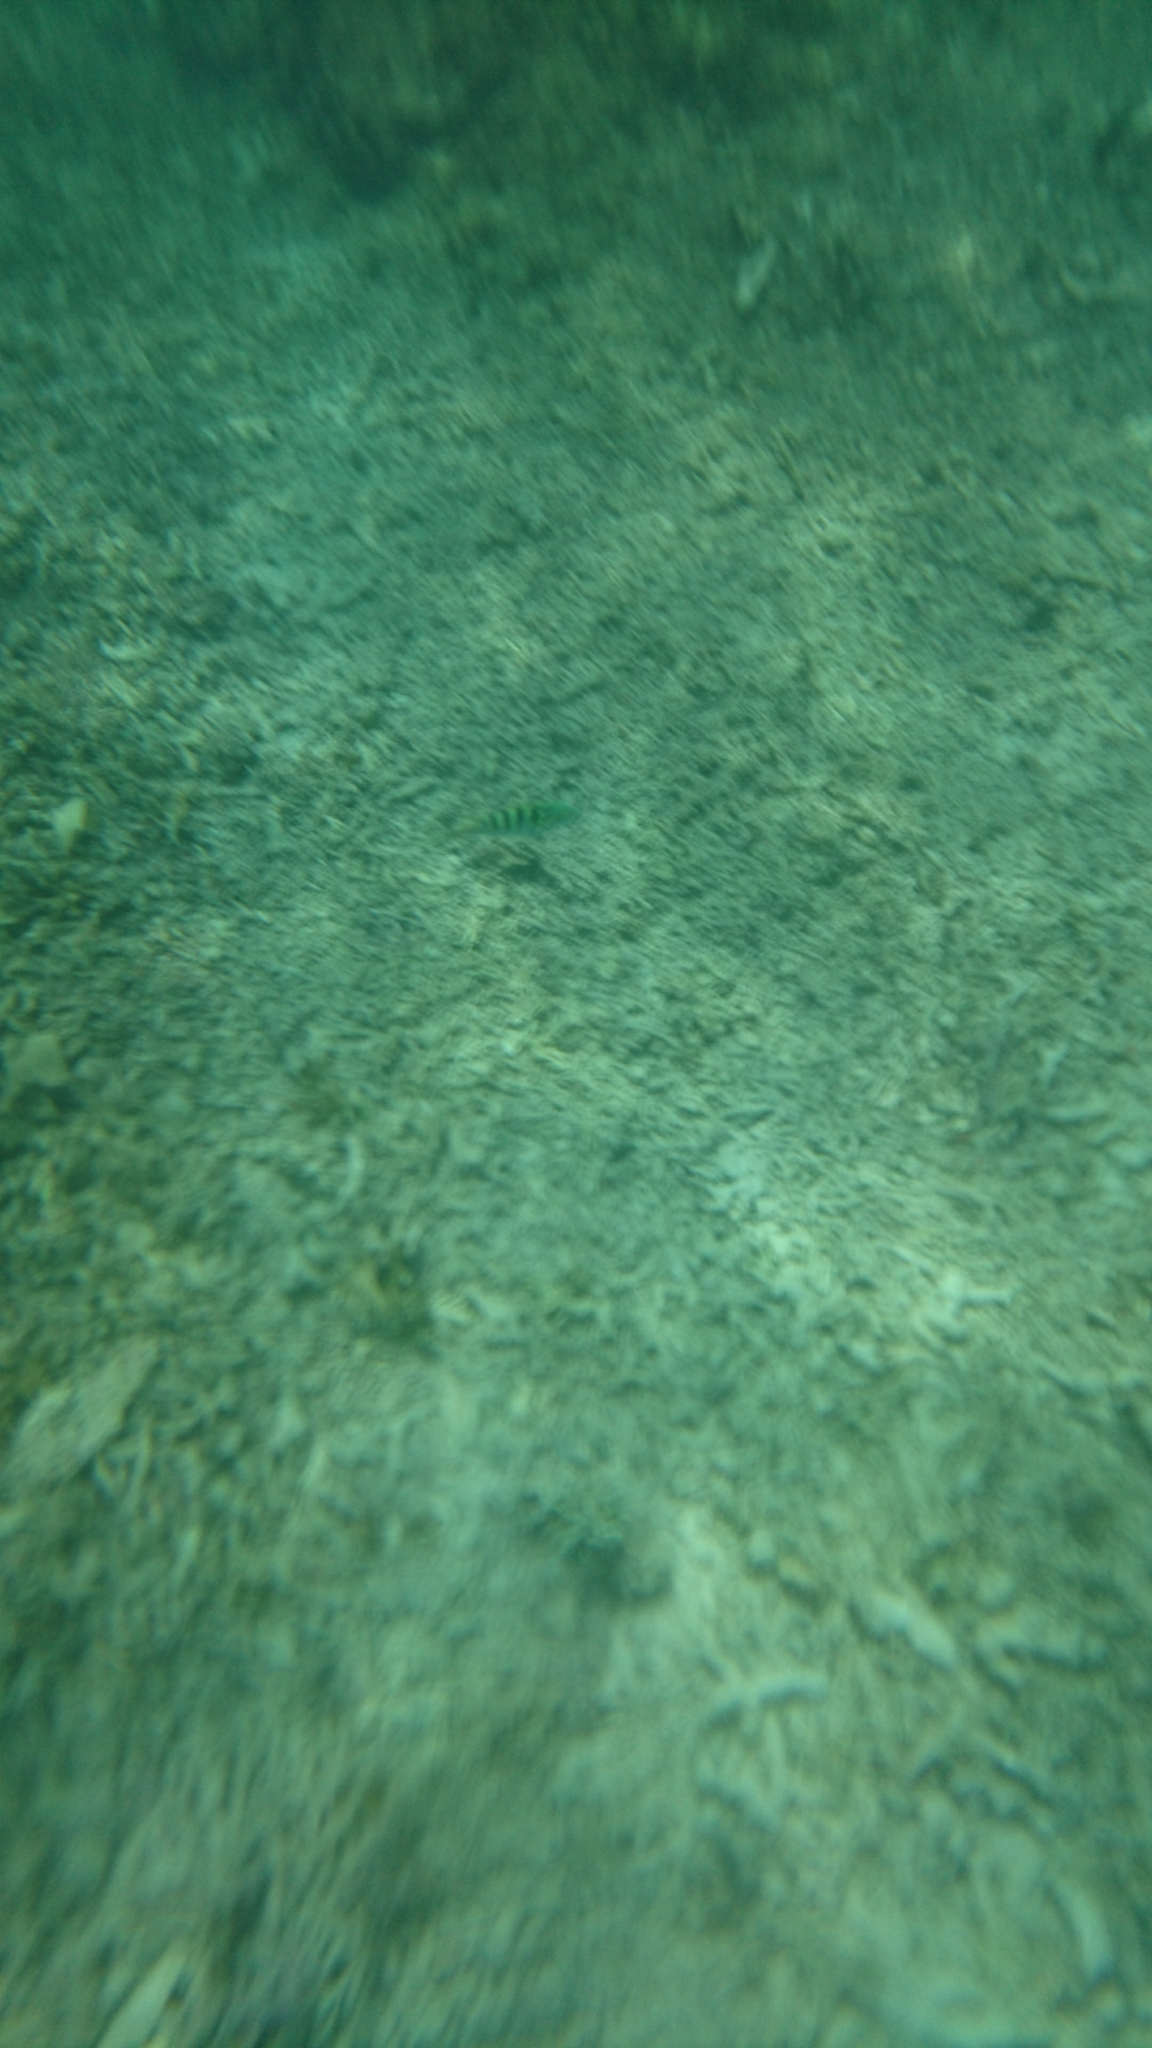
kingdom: Animalia
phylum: Chordata
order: Perciformes
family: Labridae
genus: Thalassoma
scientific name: Thalassoma hardwicke
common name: Sixbar wrasse
